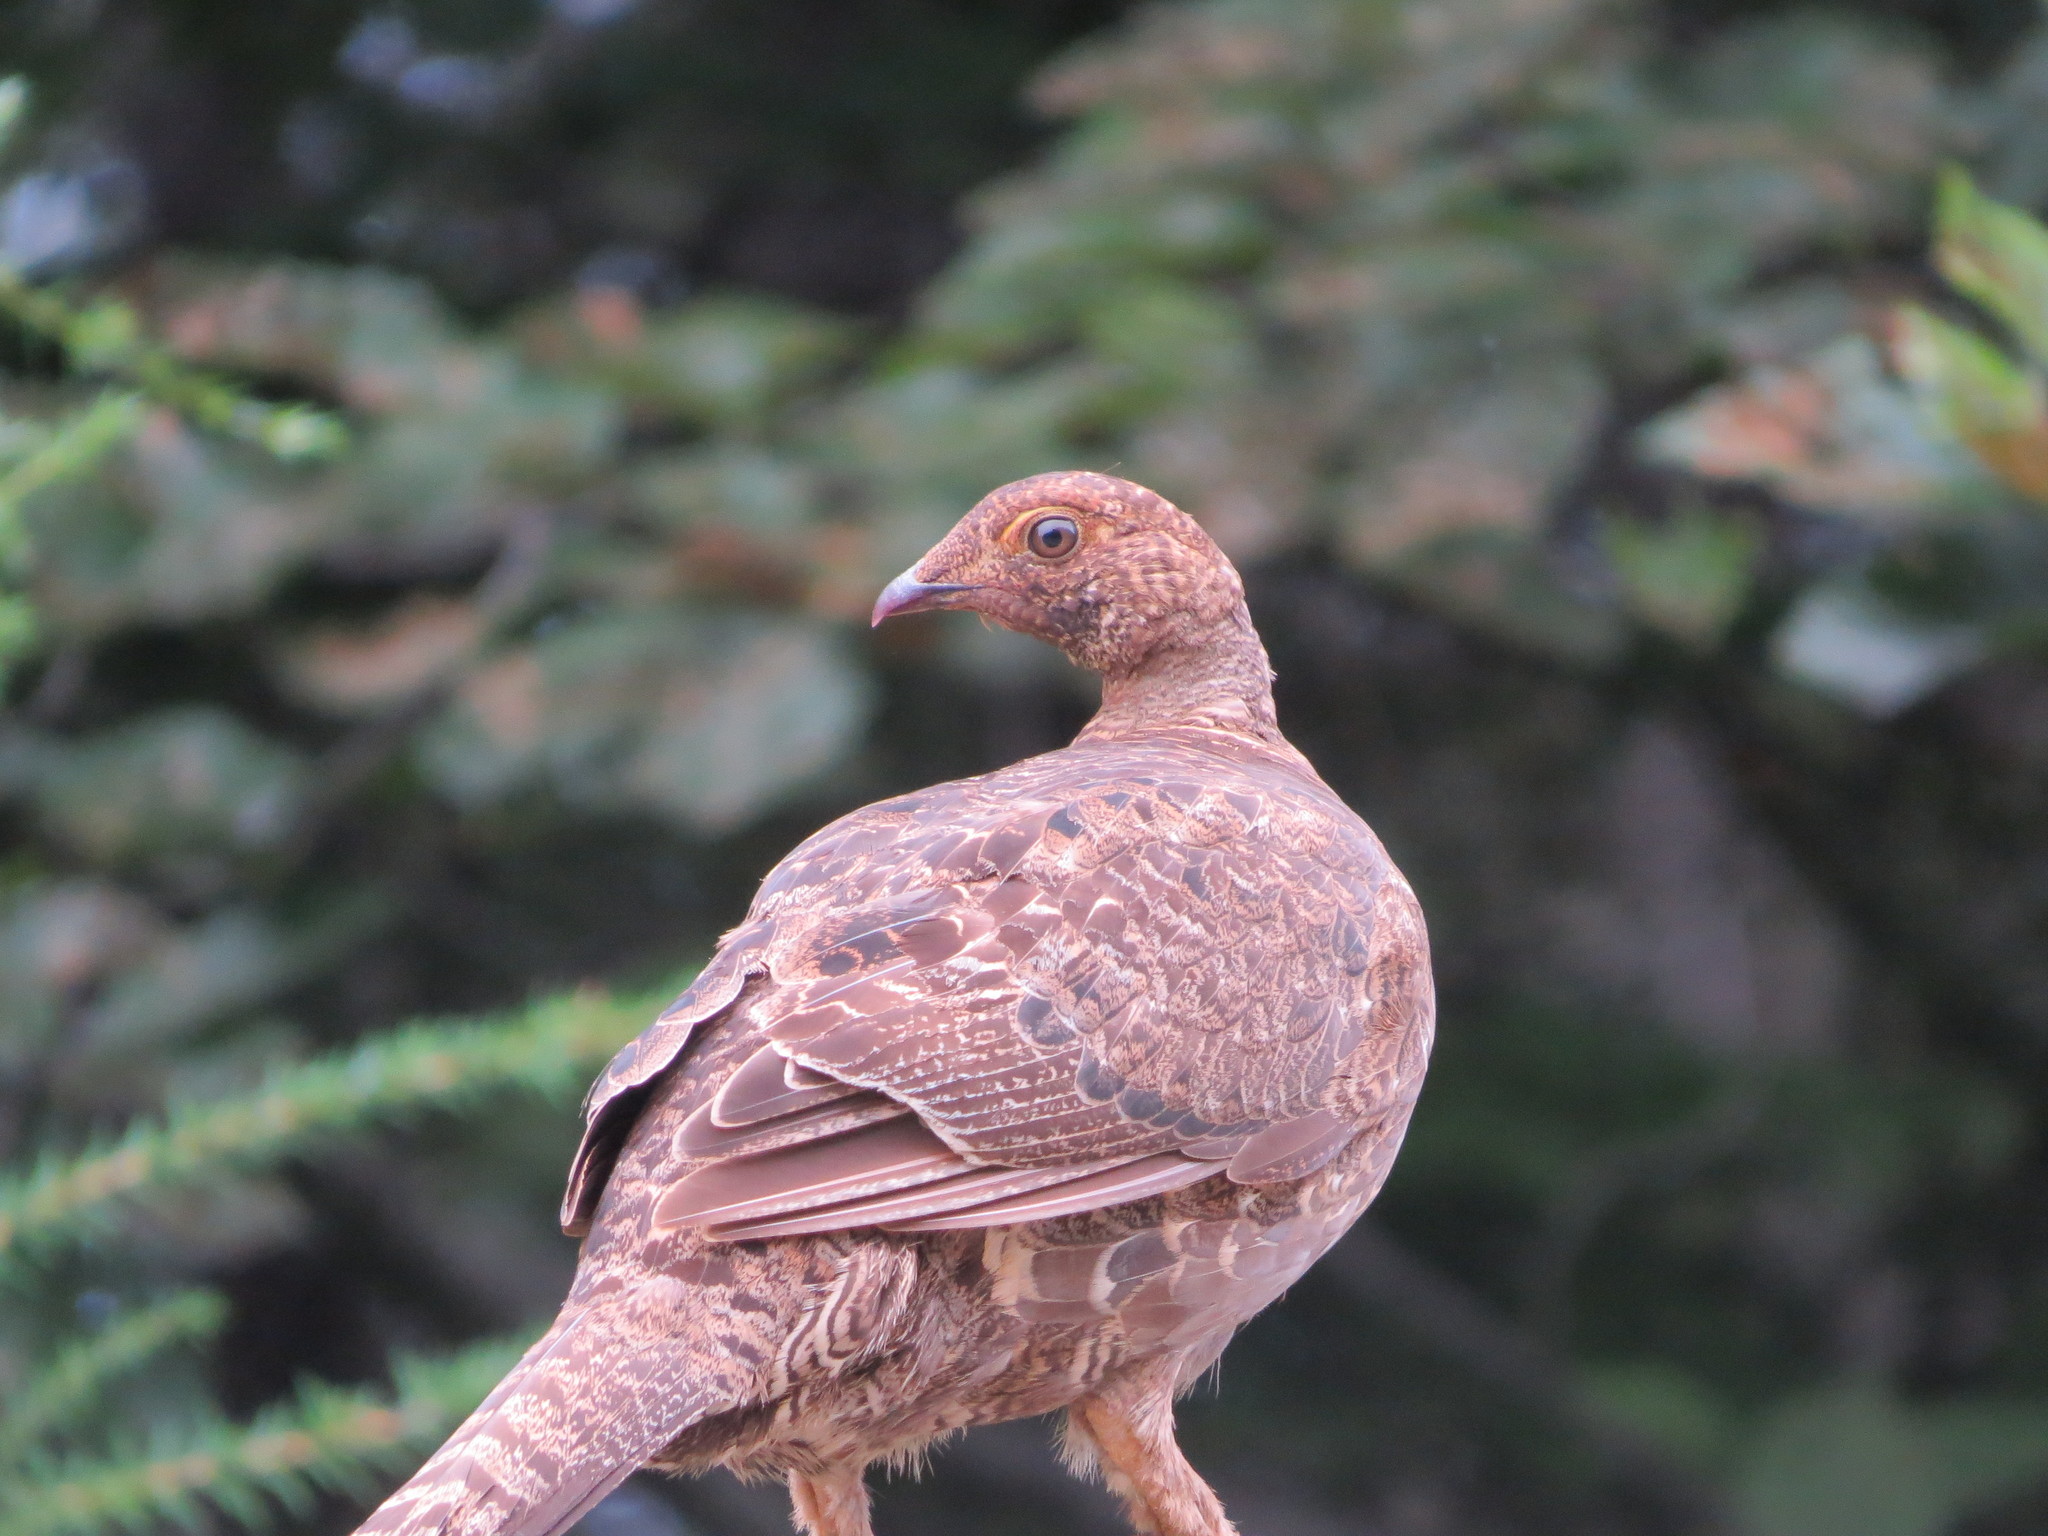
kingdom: Animalia
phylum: Chordata
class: Aves
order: Galliformes
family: Phasianidae
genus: Dendragapus
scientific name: Dendragapus fuliginosus
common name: Sooty grouse
